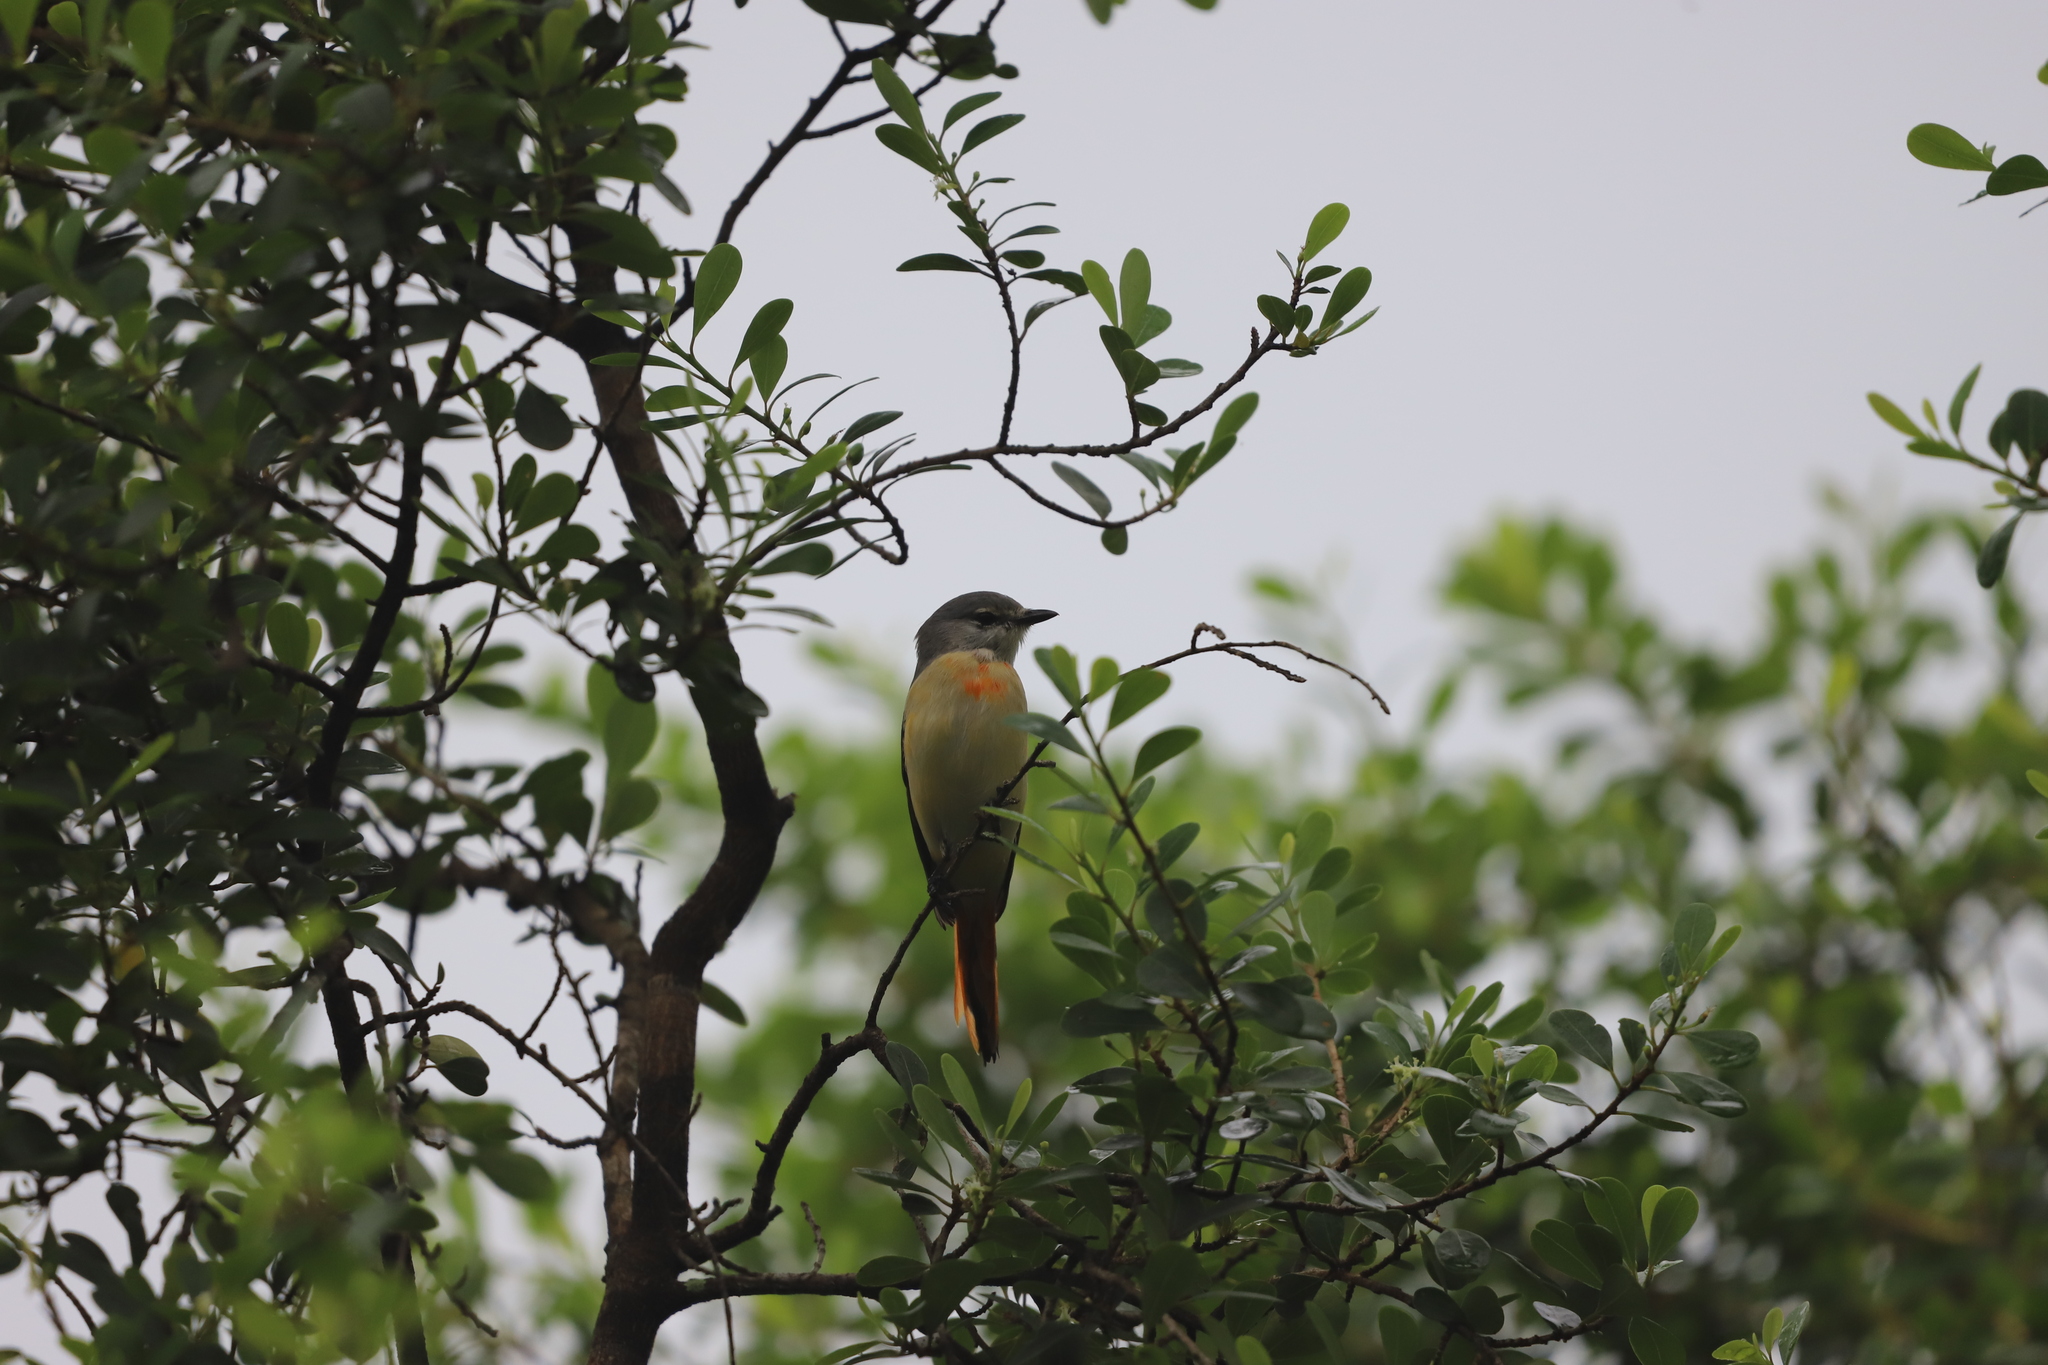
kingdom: Animalia
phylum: Chordata
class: Aves
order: Passeriformes
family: Campephagidae
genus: Pericrocotus
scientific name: Pericrocotus cinnamomeus
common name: Small minivet
